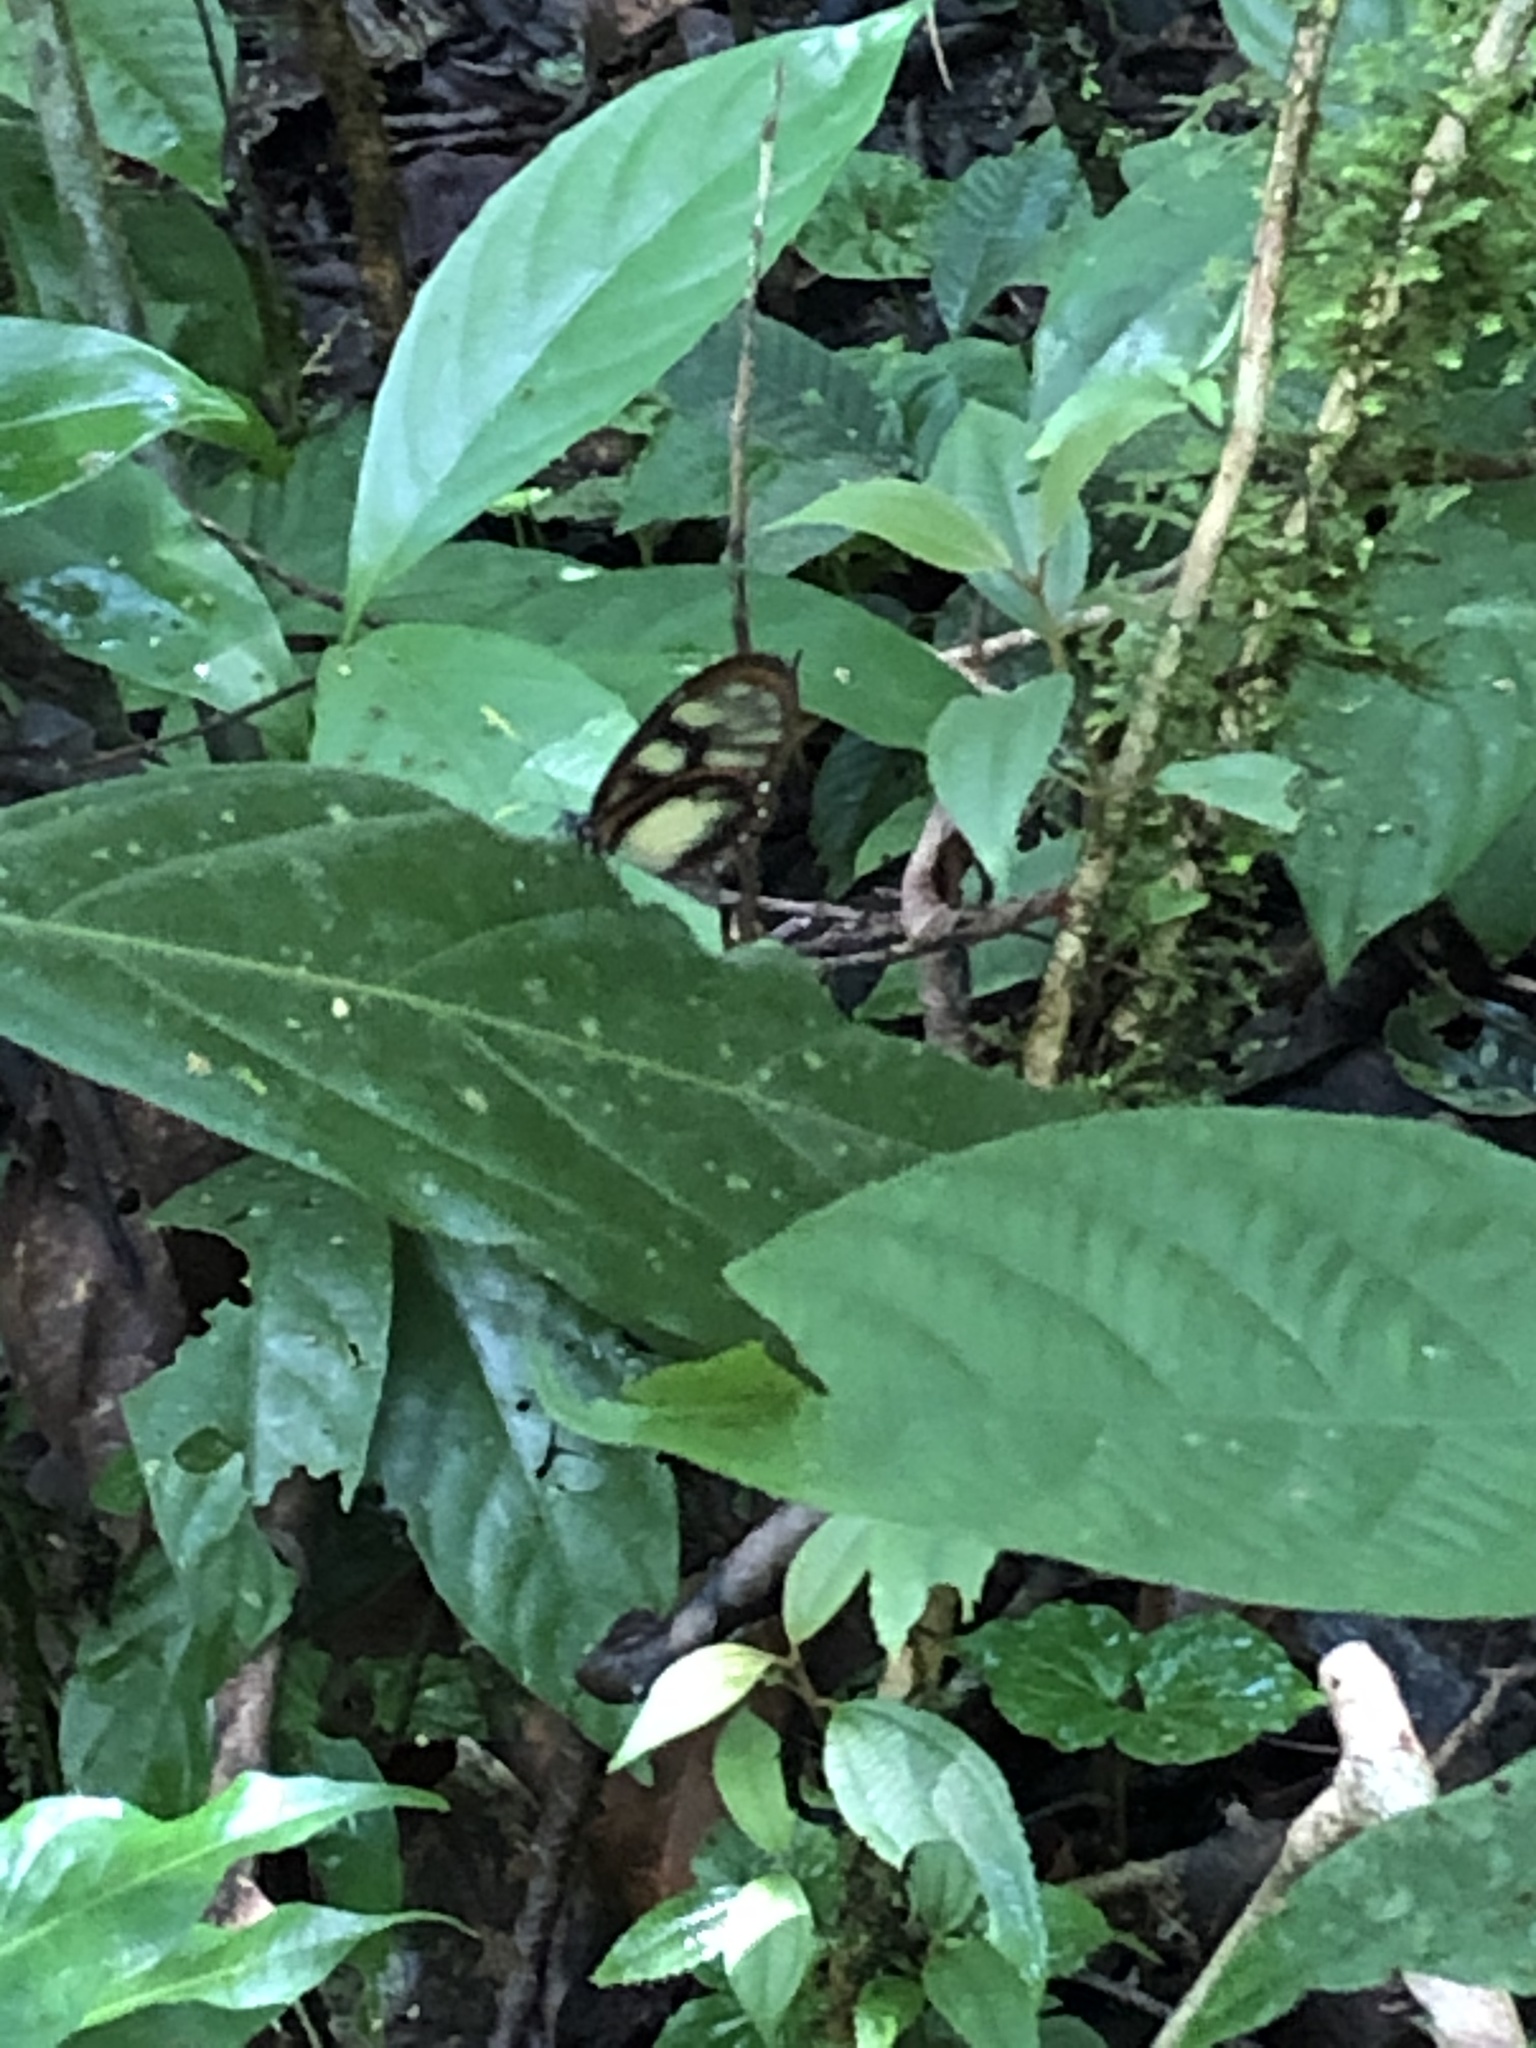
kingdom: Animalia
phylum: Arthropoda
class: Insecta
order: Lepidoptera
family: Nymphalidae
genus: Godyris
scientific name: Godyris zavaleta
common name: Zavaleta glasswing
